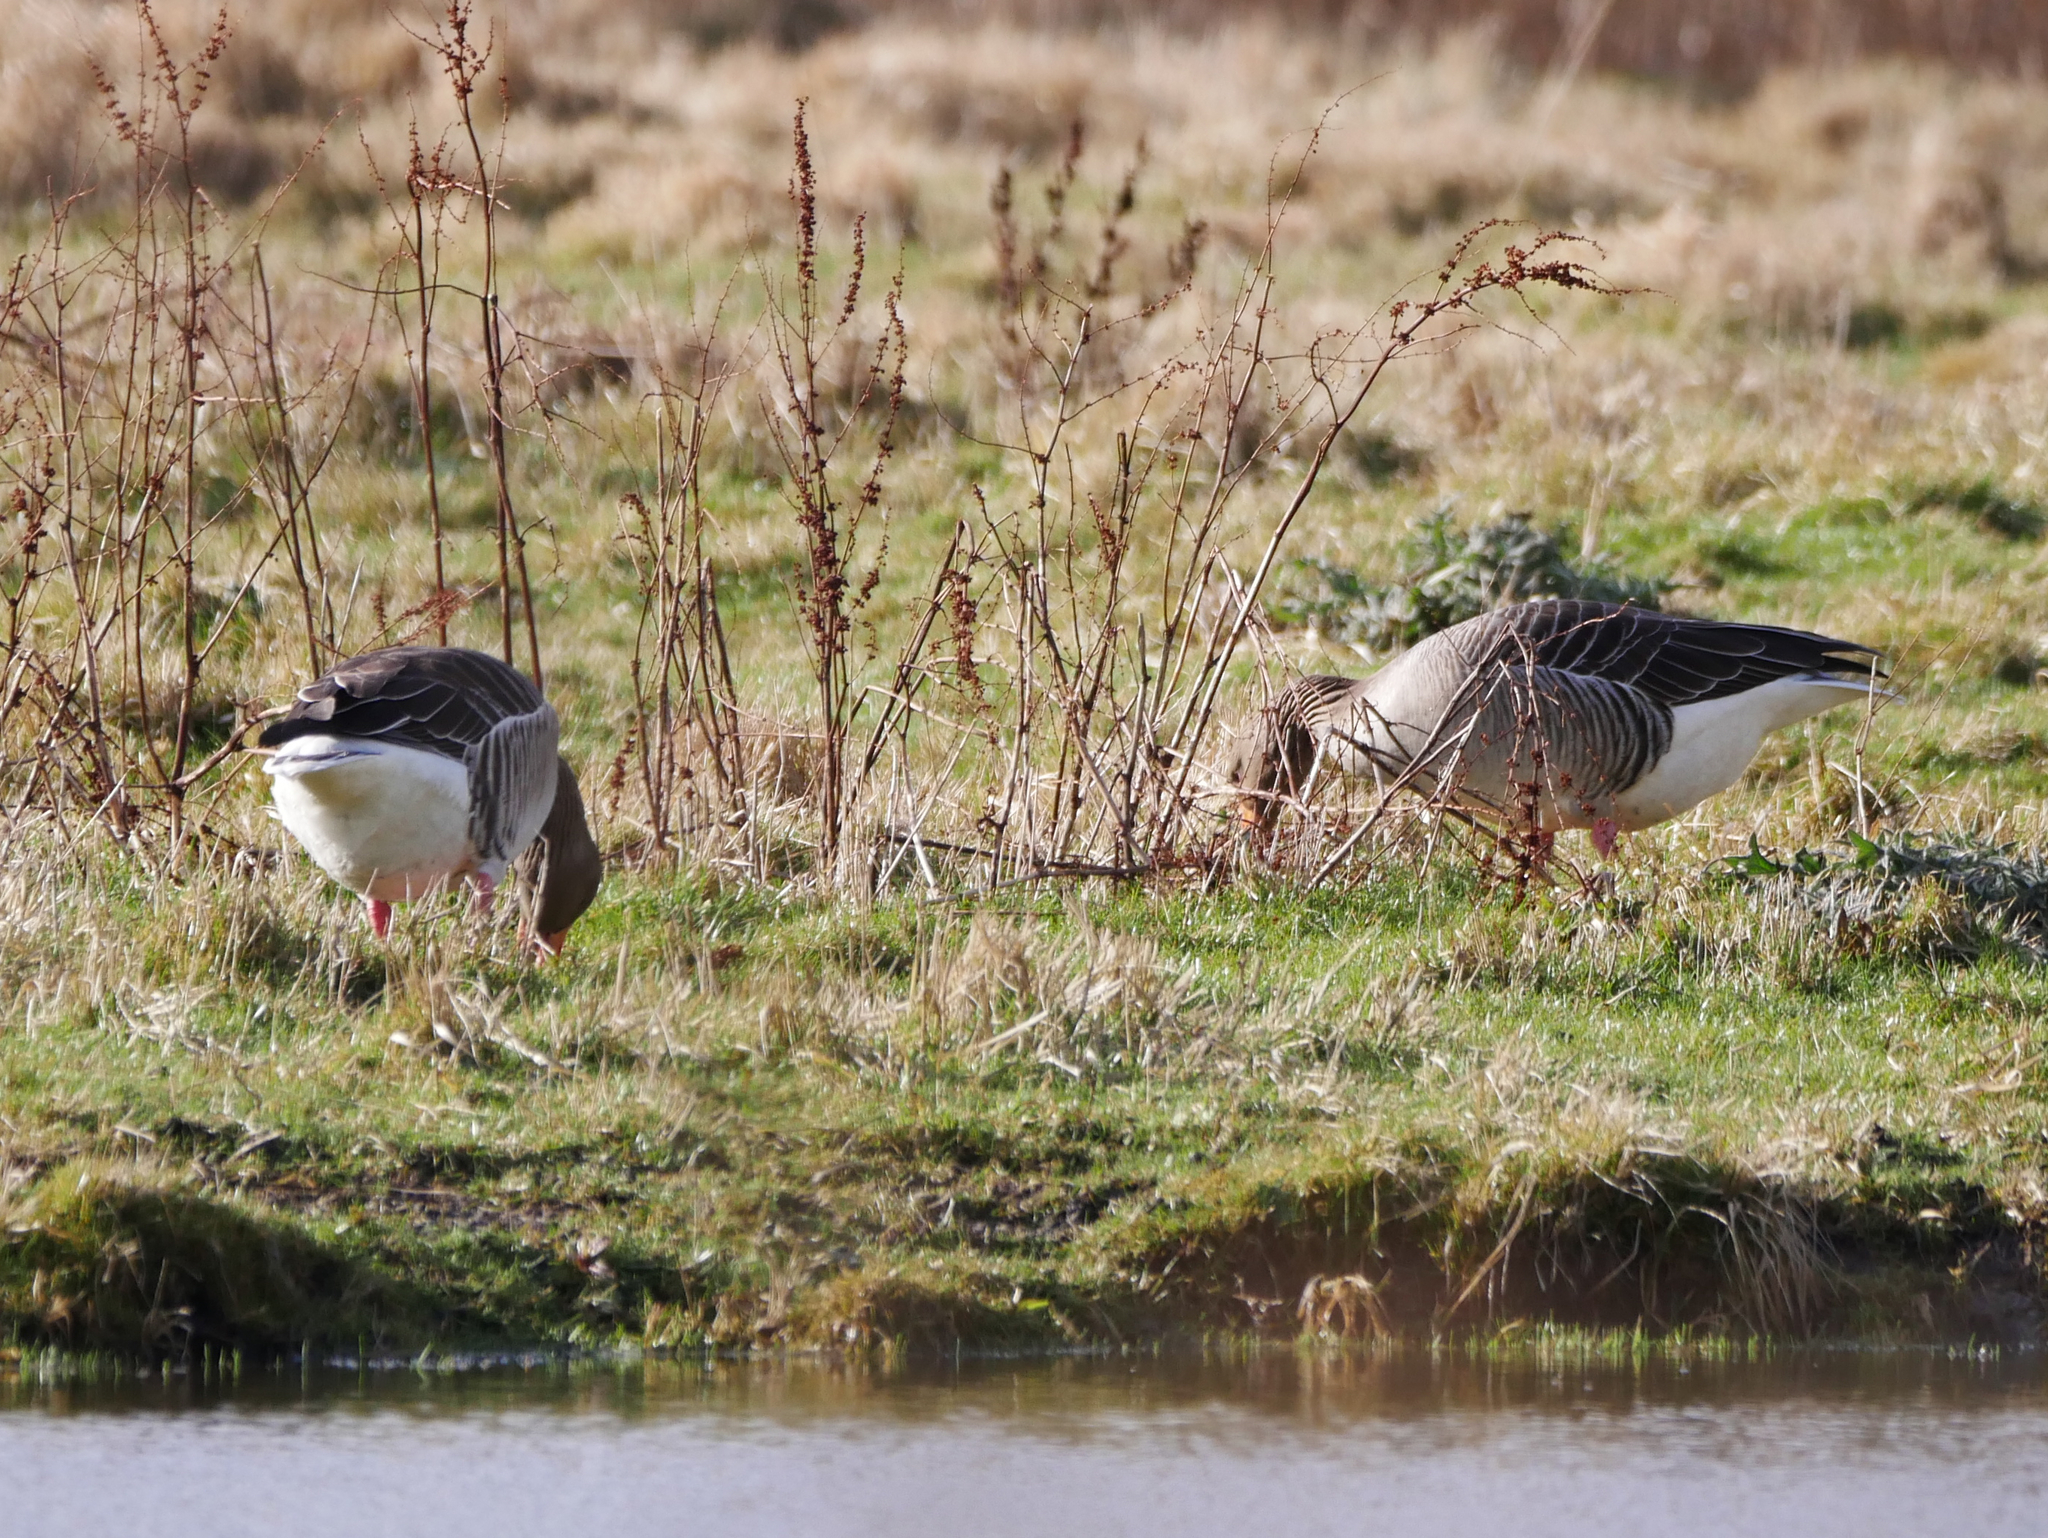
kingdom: Animalia
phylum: Chordata
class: Aves
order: Anseriformes
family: Anatidae
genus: Anser
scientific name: Anser anser
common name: Greylag goose
